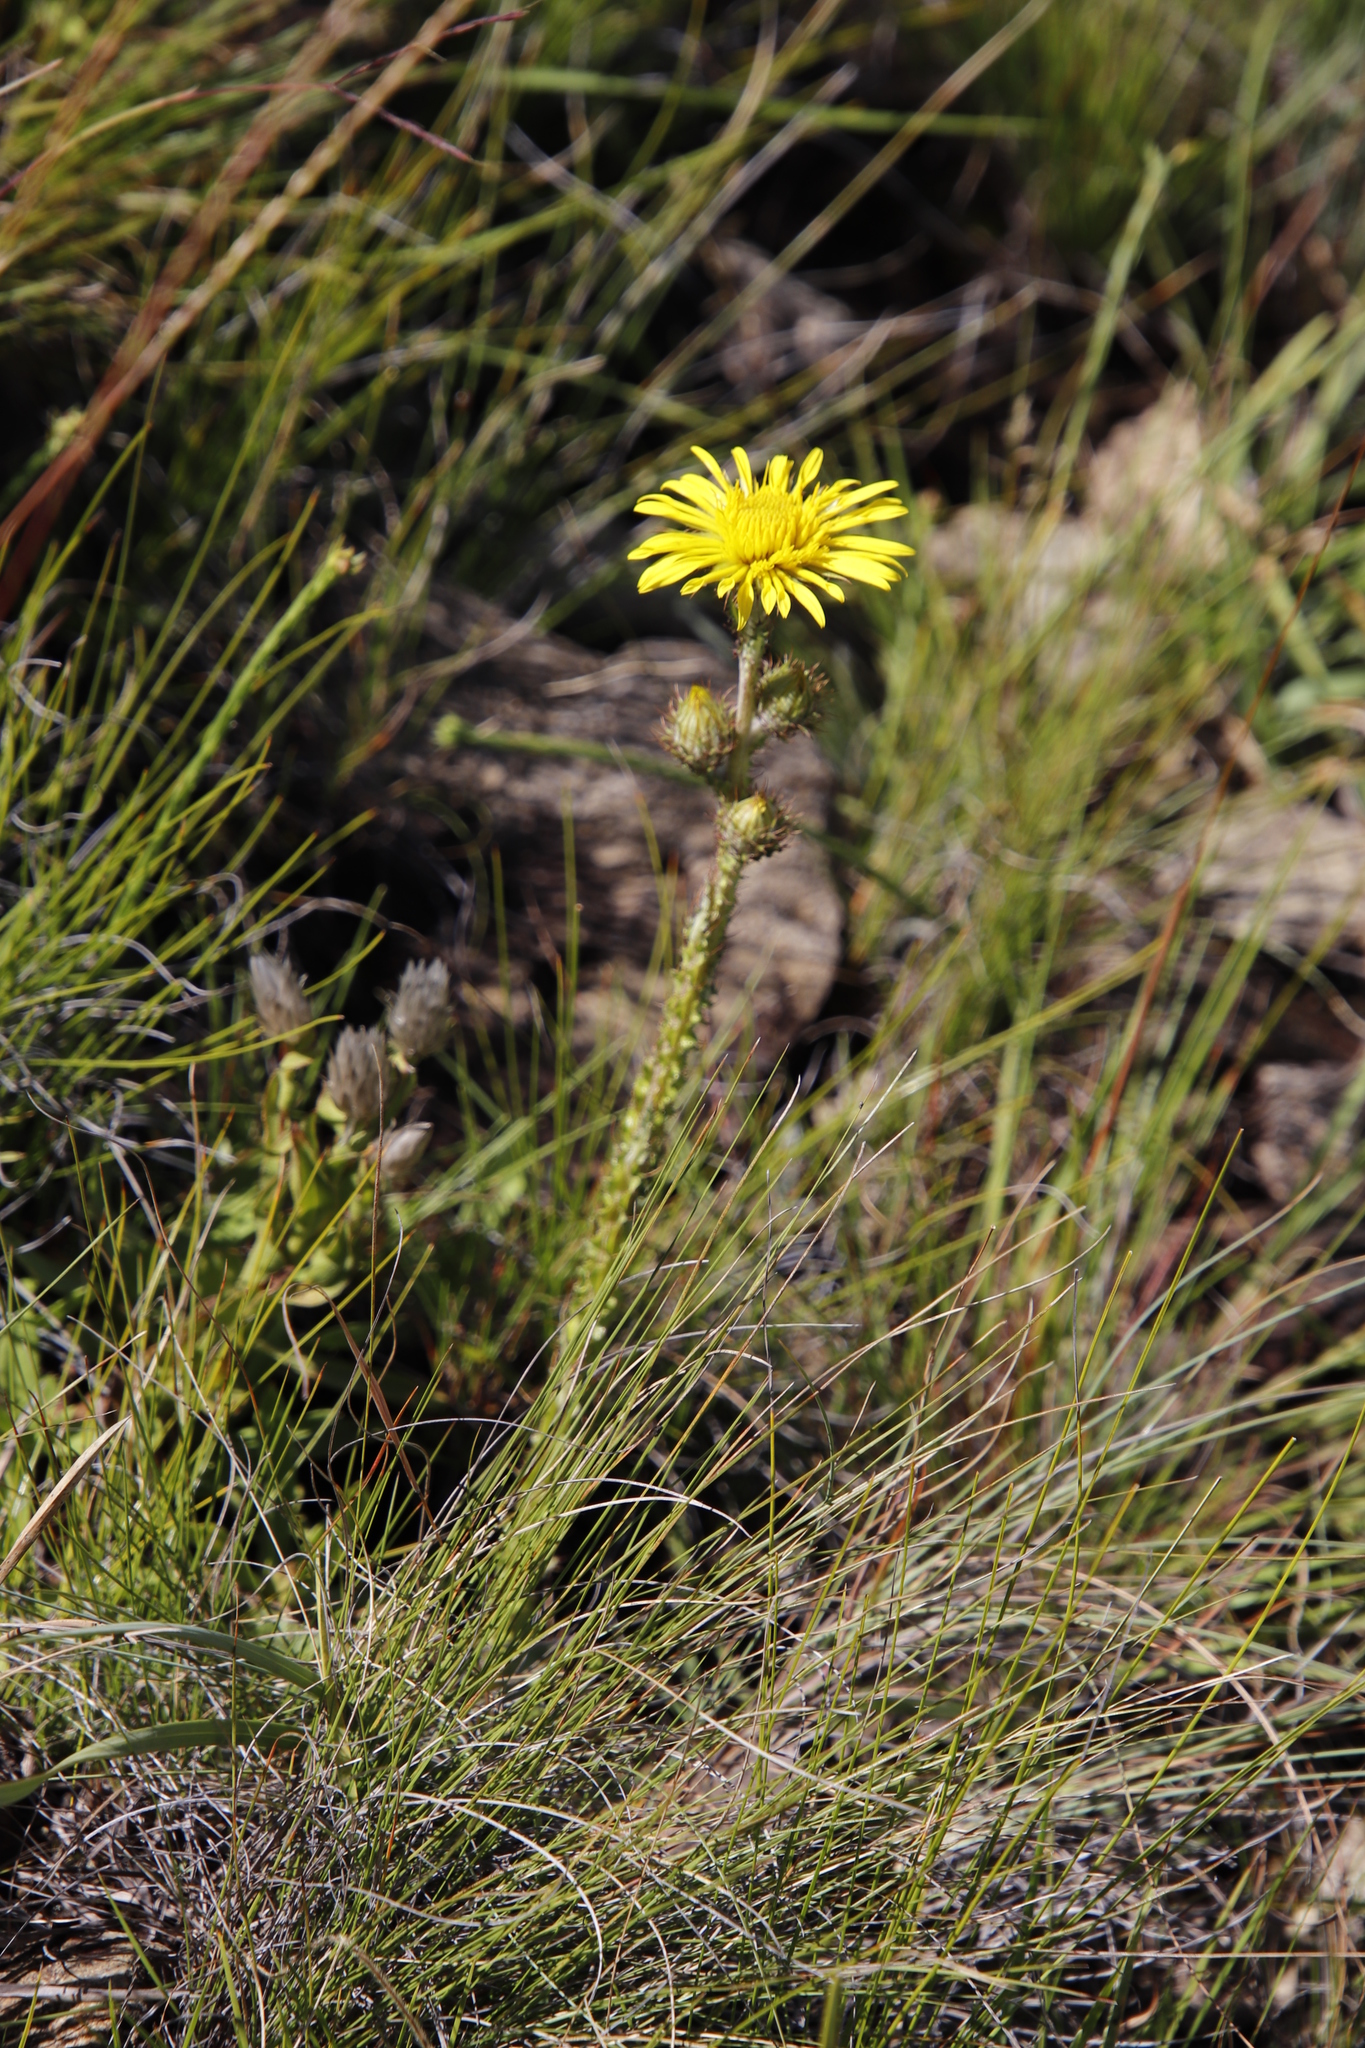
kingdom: Plantae
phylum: Tracheophyta
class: Magnoliopsida
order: Asterales
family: Asteraceae
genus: Berkheya
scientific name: Berkheya rhapontica
